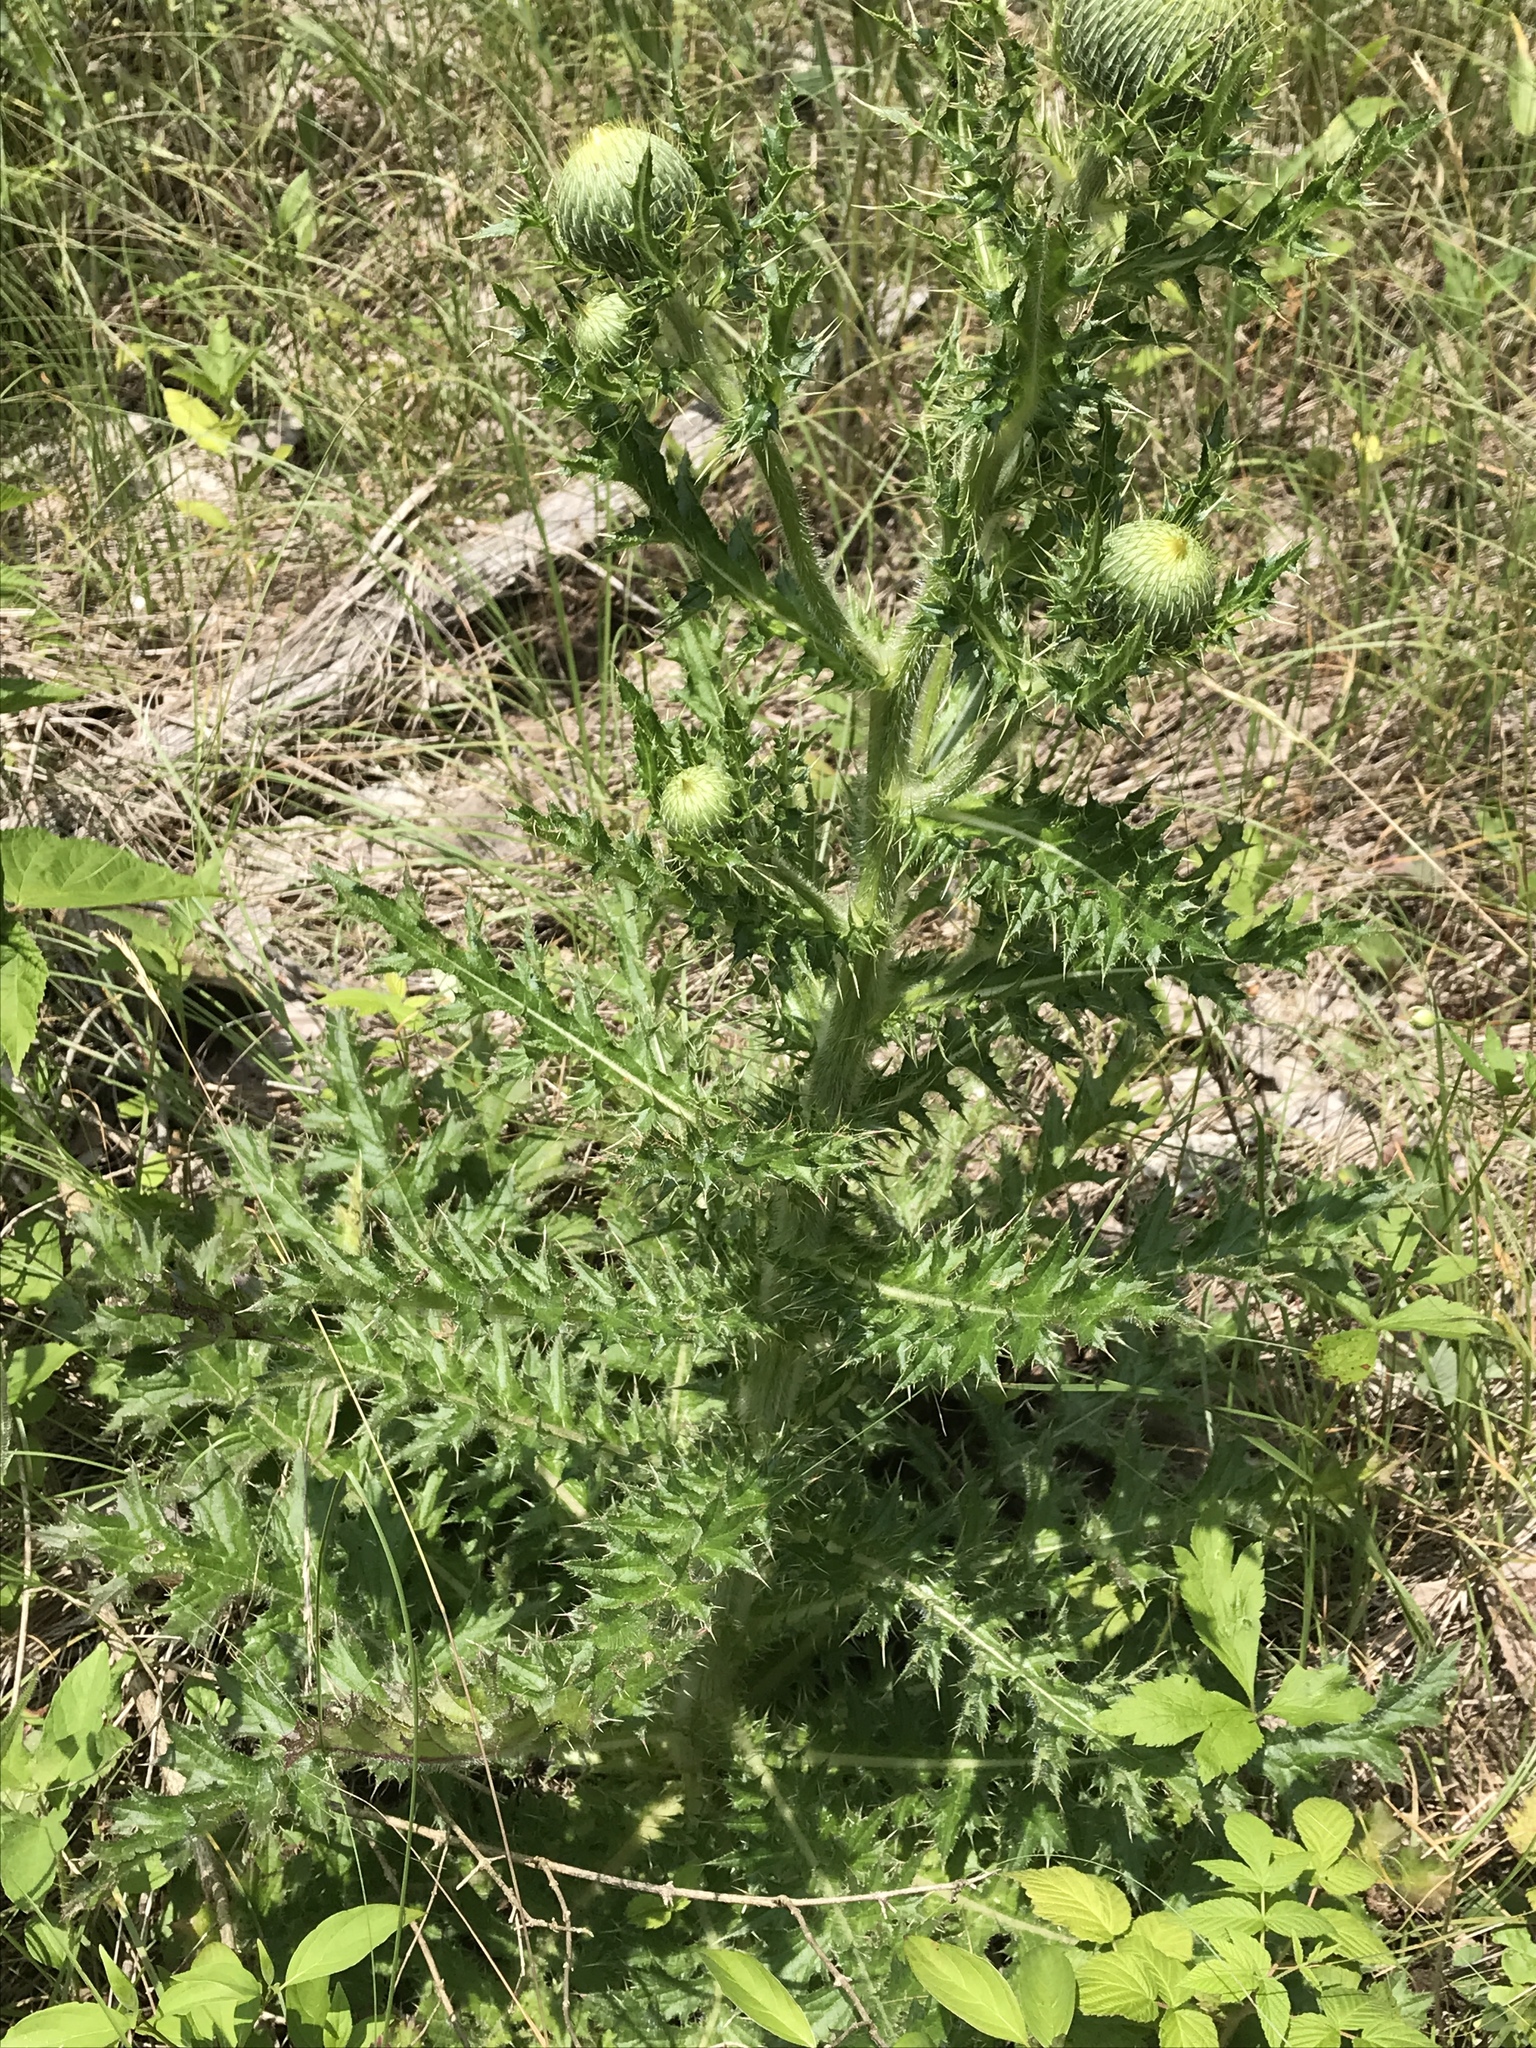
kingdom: Plantae
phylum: Tracheophyta
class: Magnoliopsida
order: Asterales
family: Asteraceae
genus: Cirsium
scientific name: Cirsium pumilum
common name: Pasture thistle
